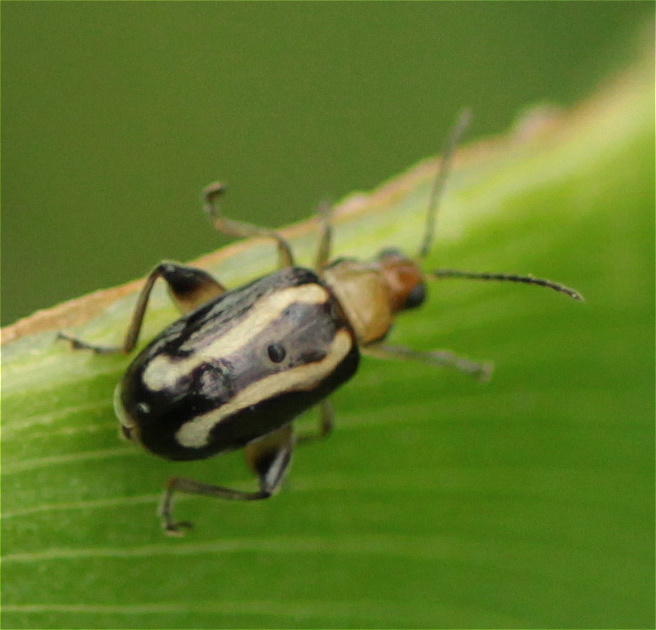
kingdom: Animalia
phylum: Arthropoda
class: Insecta
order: Coleoptera
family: Chrysomelidae
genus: Systena
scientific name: Systena s-littera
